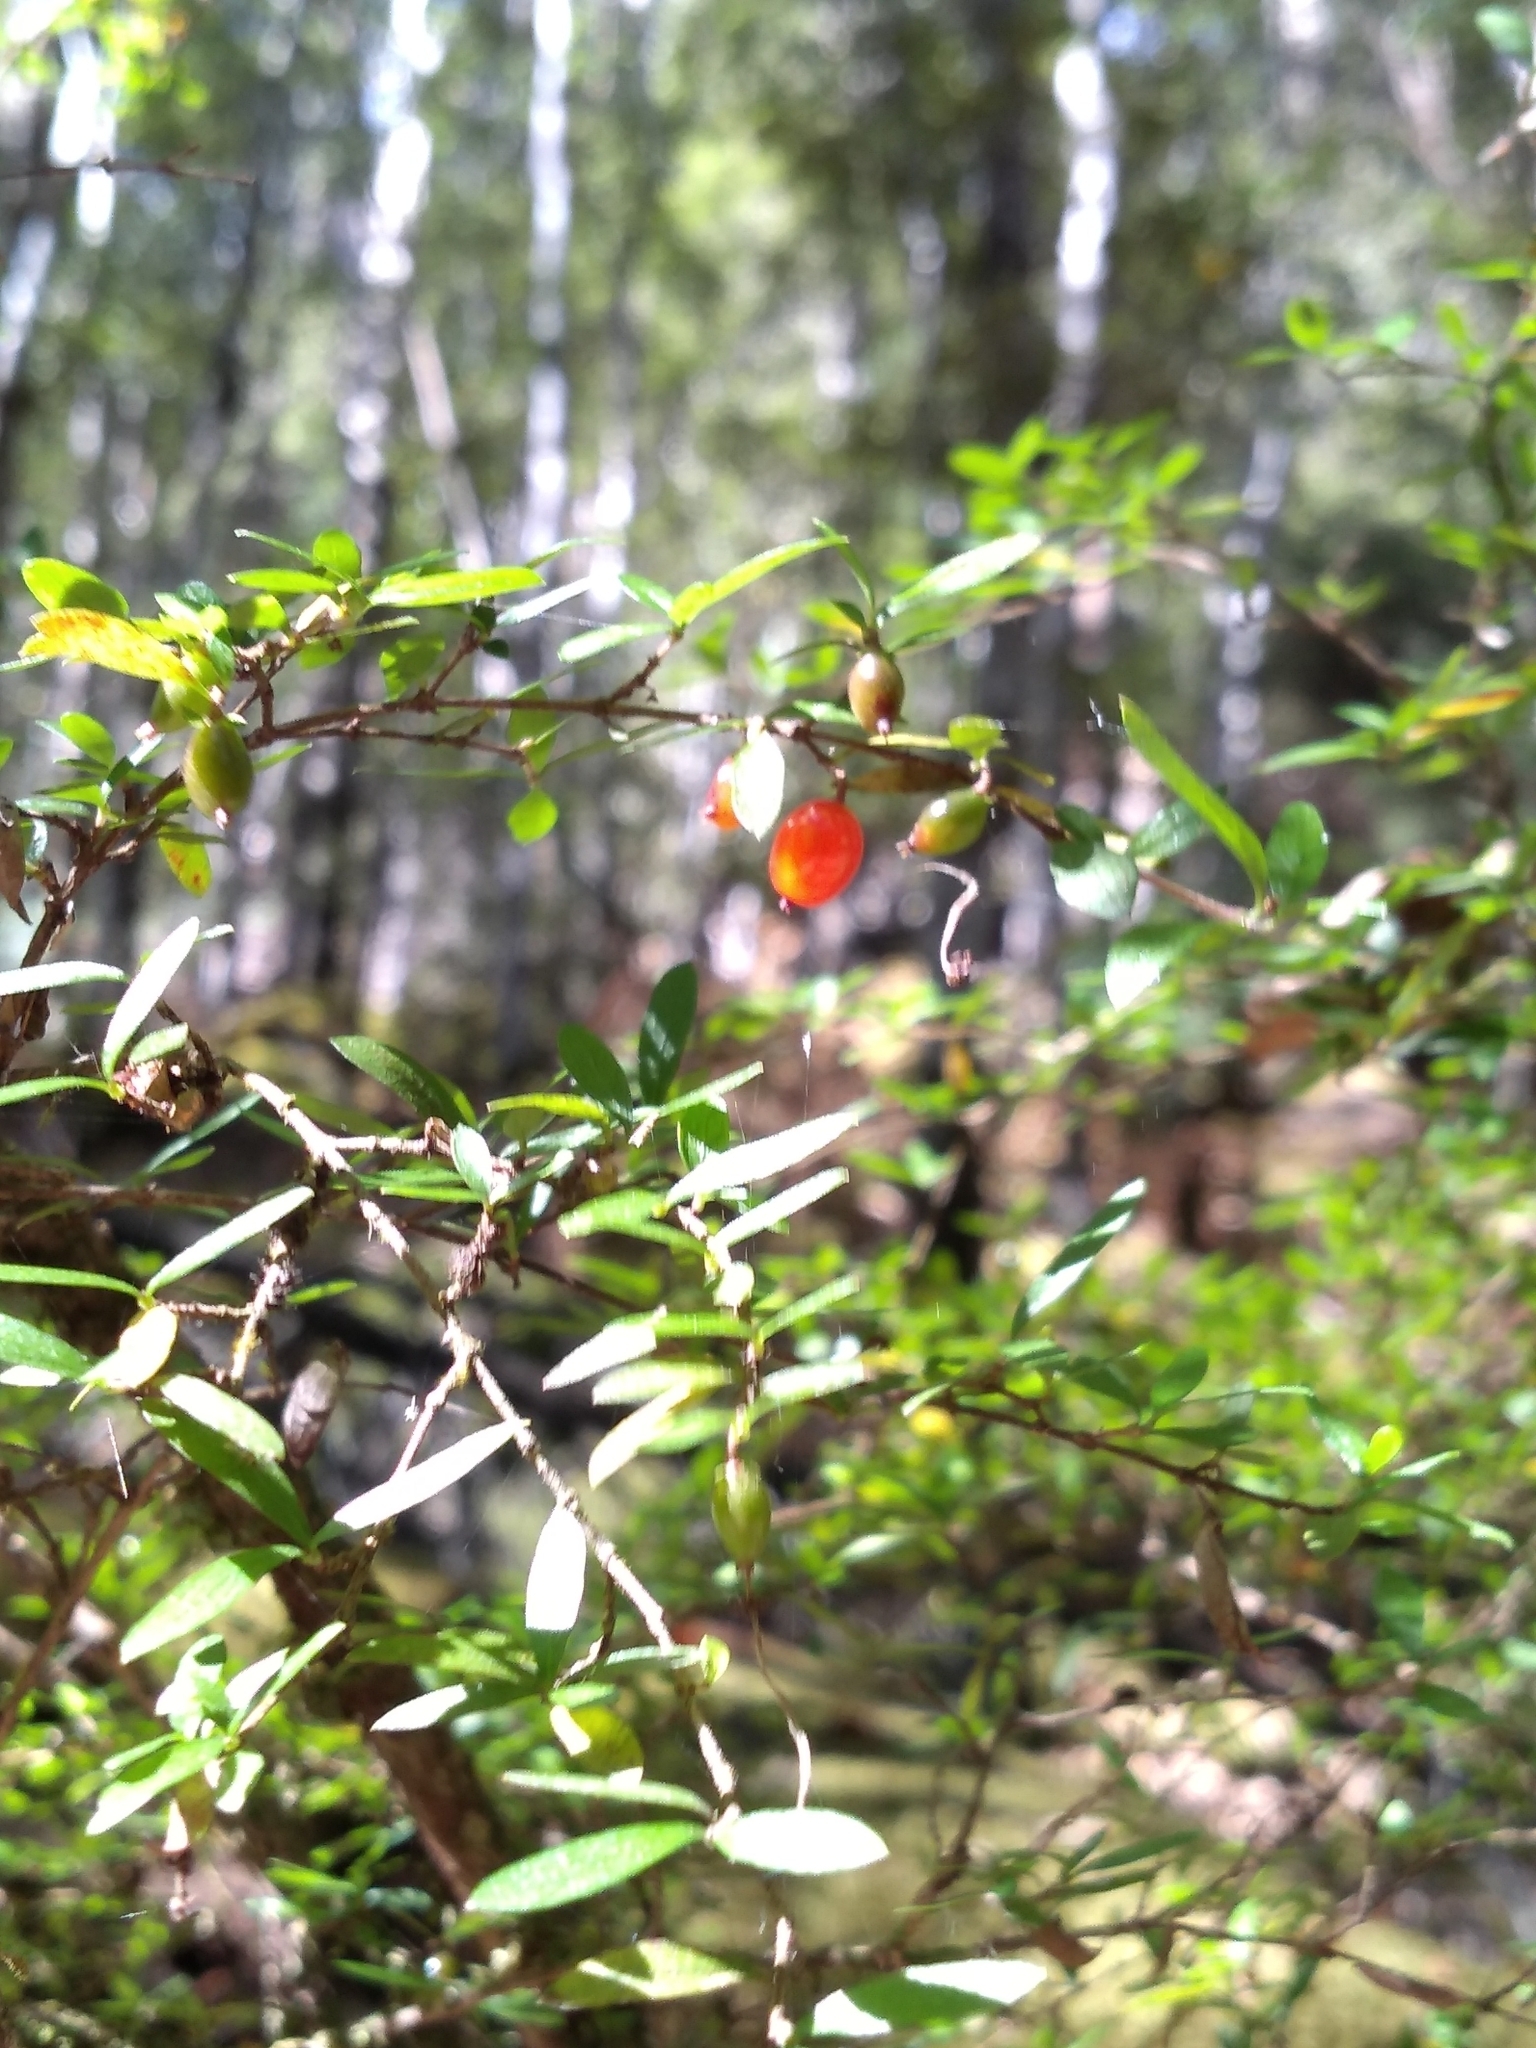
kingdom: Plantae
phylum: Tracheophyta
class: Magnoliopsida
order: Gentianales
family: Rubiaceae
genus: Coprosma
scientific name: Coprosma quadrifida
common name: Prickly currantbush
